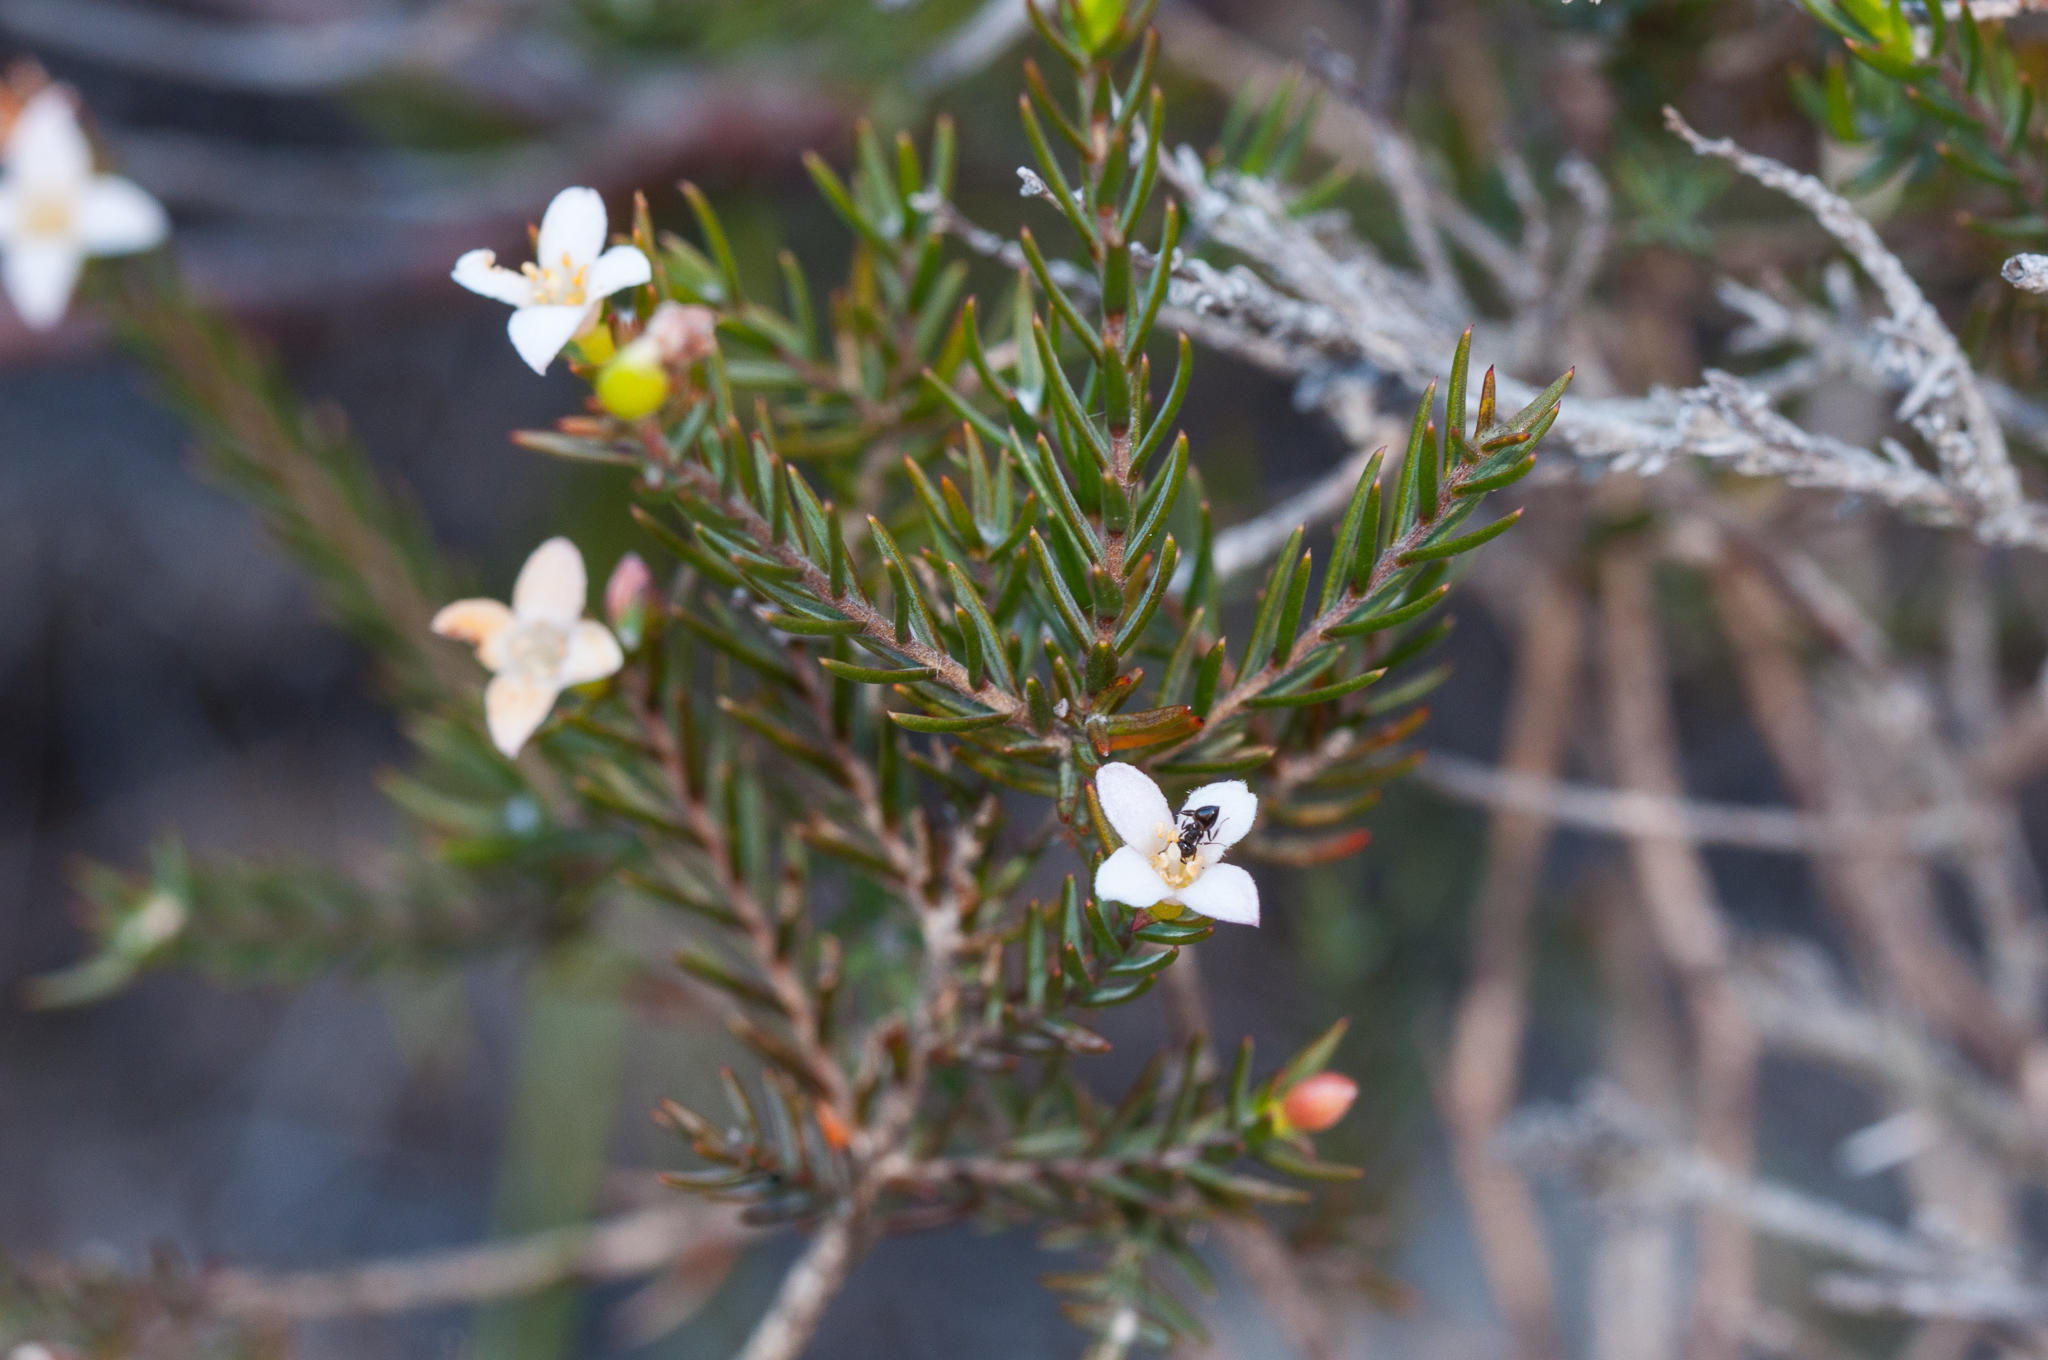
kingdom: Animalia
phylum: Arthropoda
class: Insecta
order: Hymenoptera
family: Formicidae
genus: Crematogaster
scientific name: Crematogaster peringueyi
